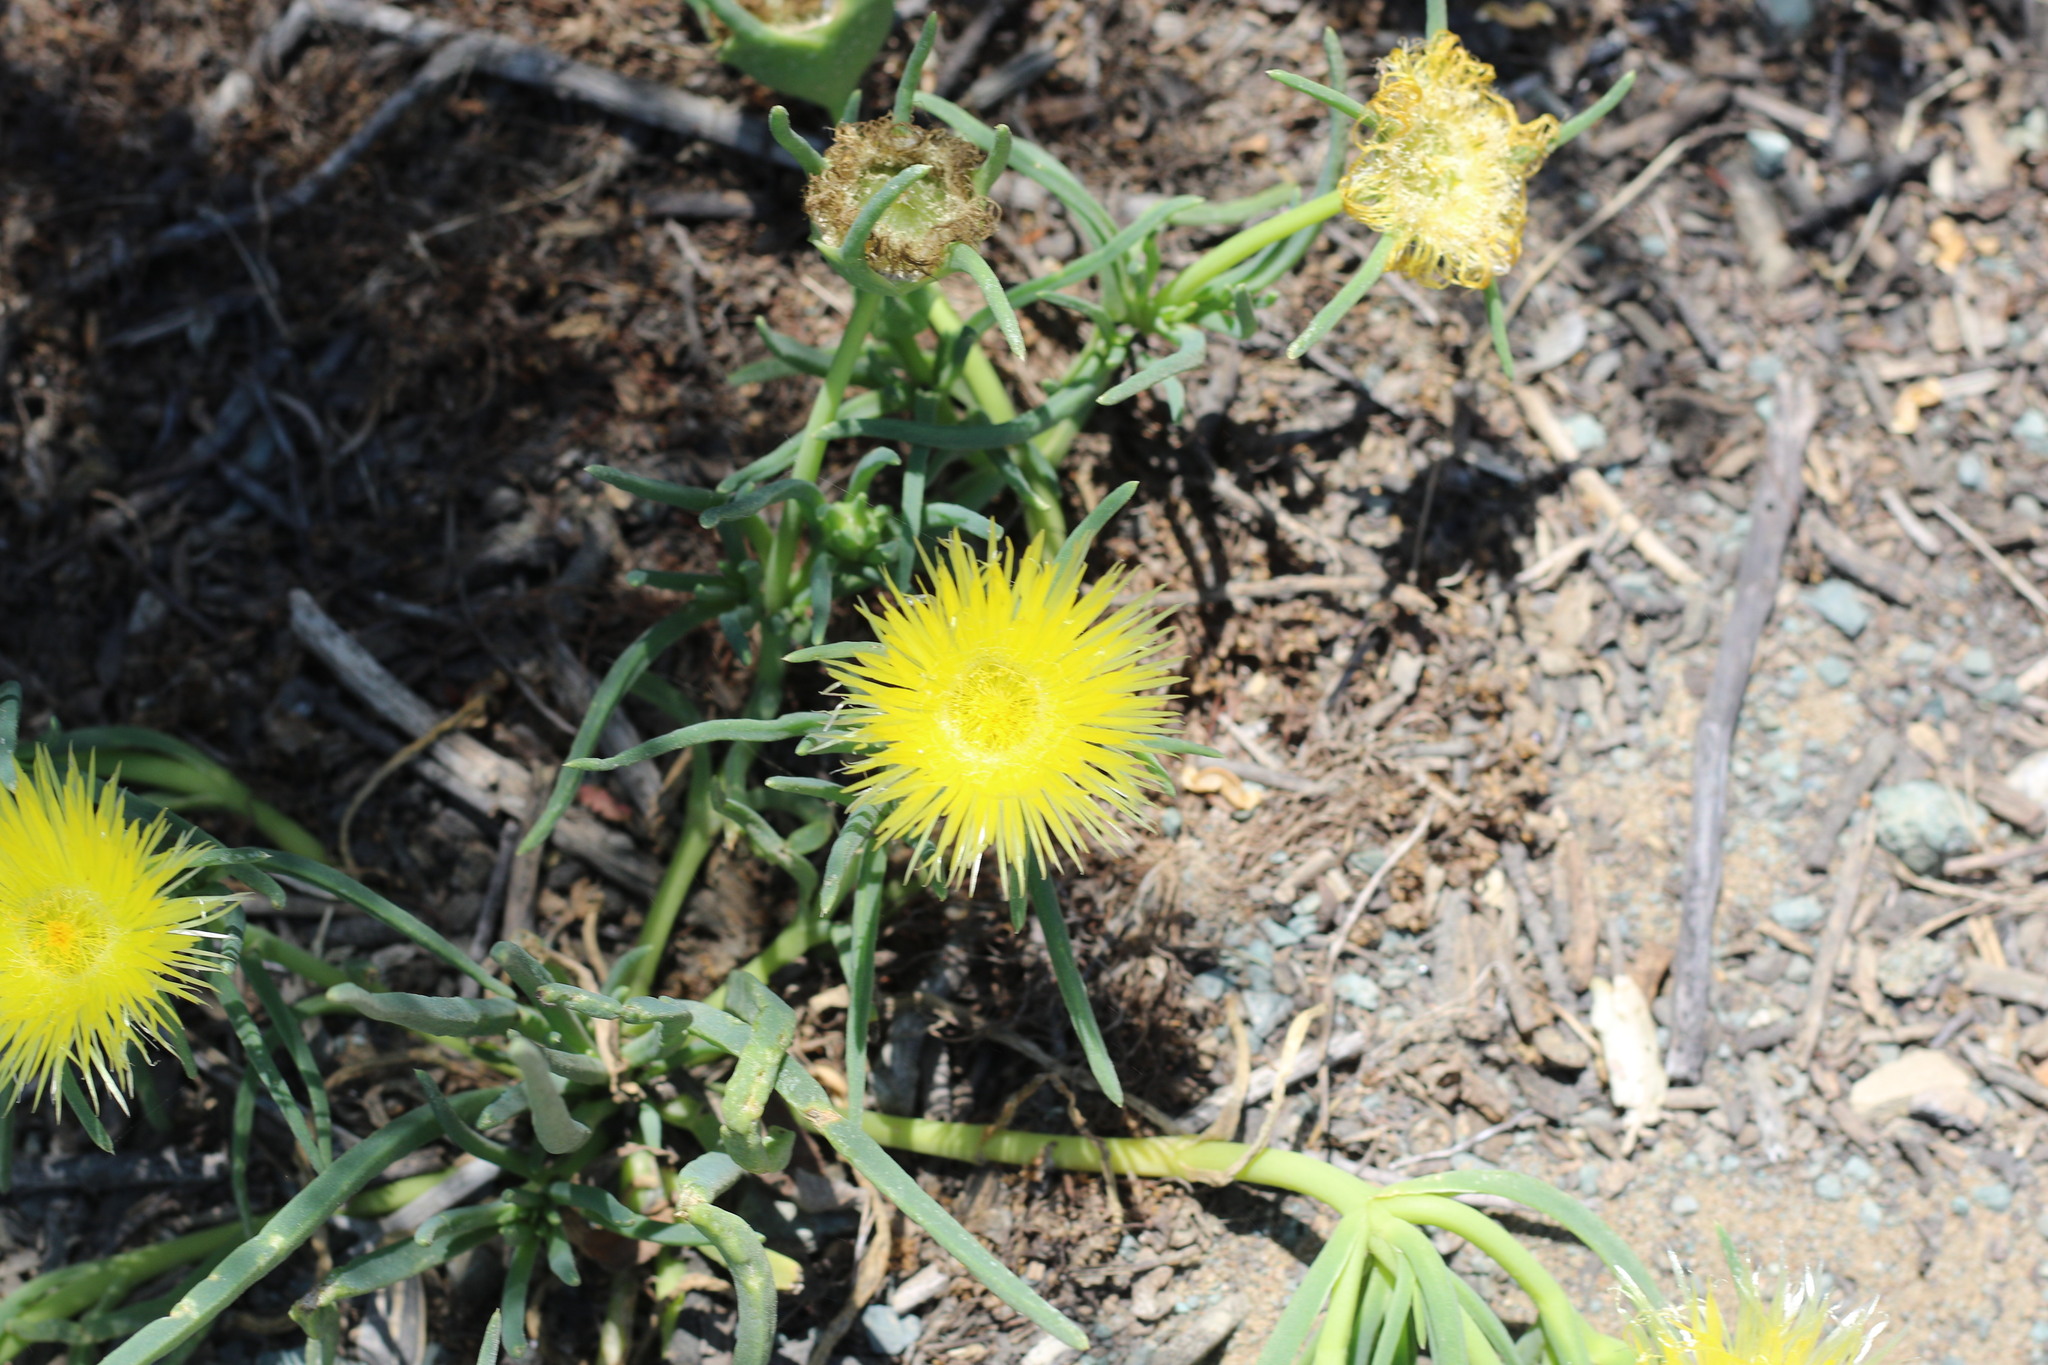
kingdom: Plantae
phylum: Tracheophyta
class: Magnoliopsida
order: Caryophyllales
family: Aizoaceae
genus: Conicosia
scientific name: Conicosia pugioniformis
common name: Narrow-leaved iceplant
